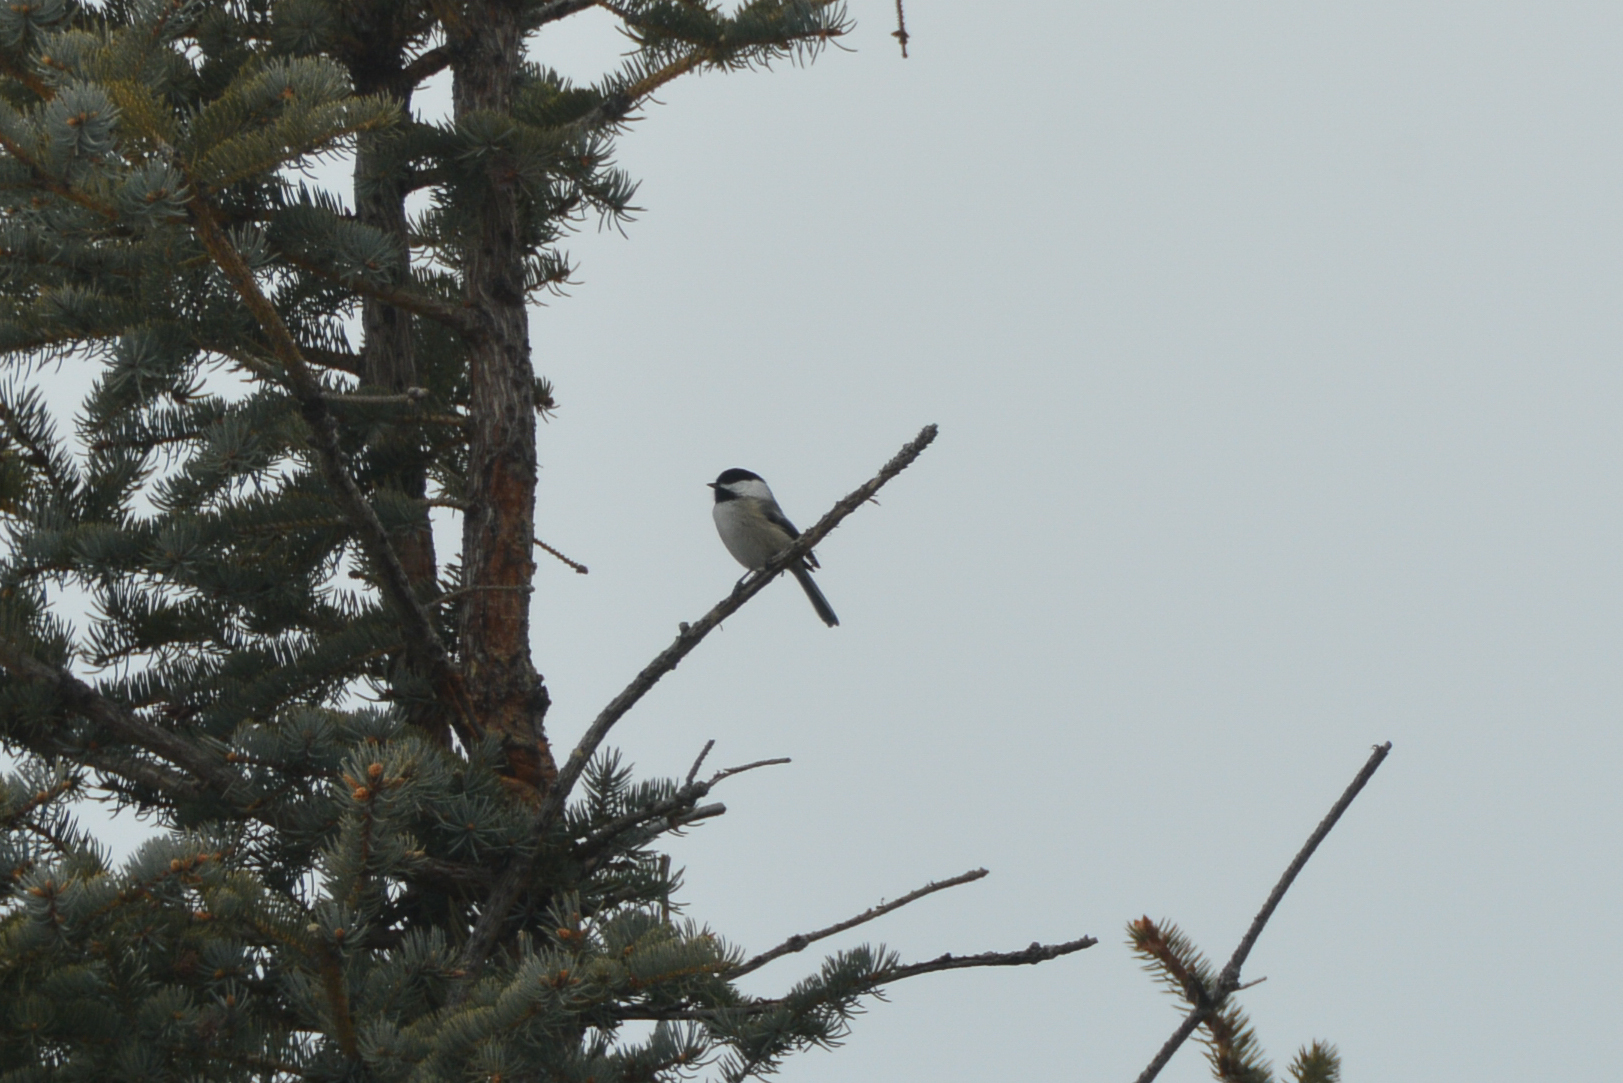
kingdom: Animalia
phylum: Chordata
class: Aves
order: Passeriformes
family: Paridae
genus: Poecile
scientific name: Poecile atricapillus
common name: Black-capped chickadee
